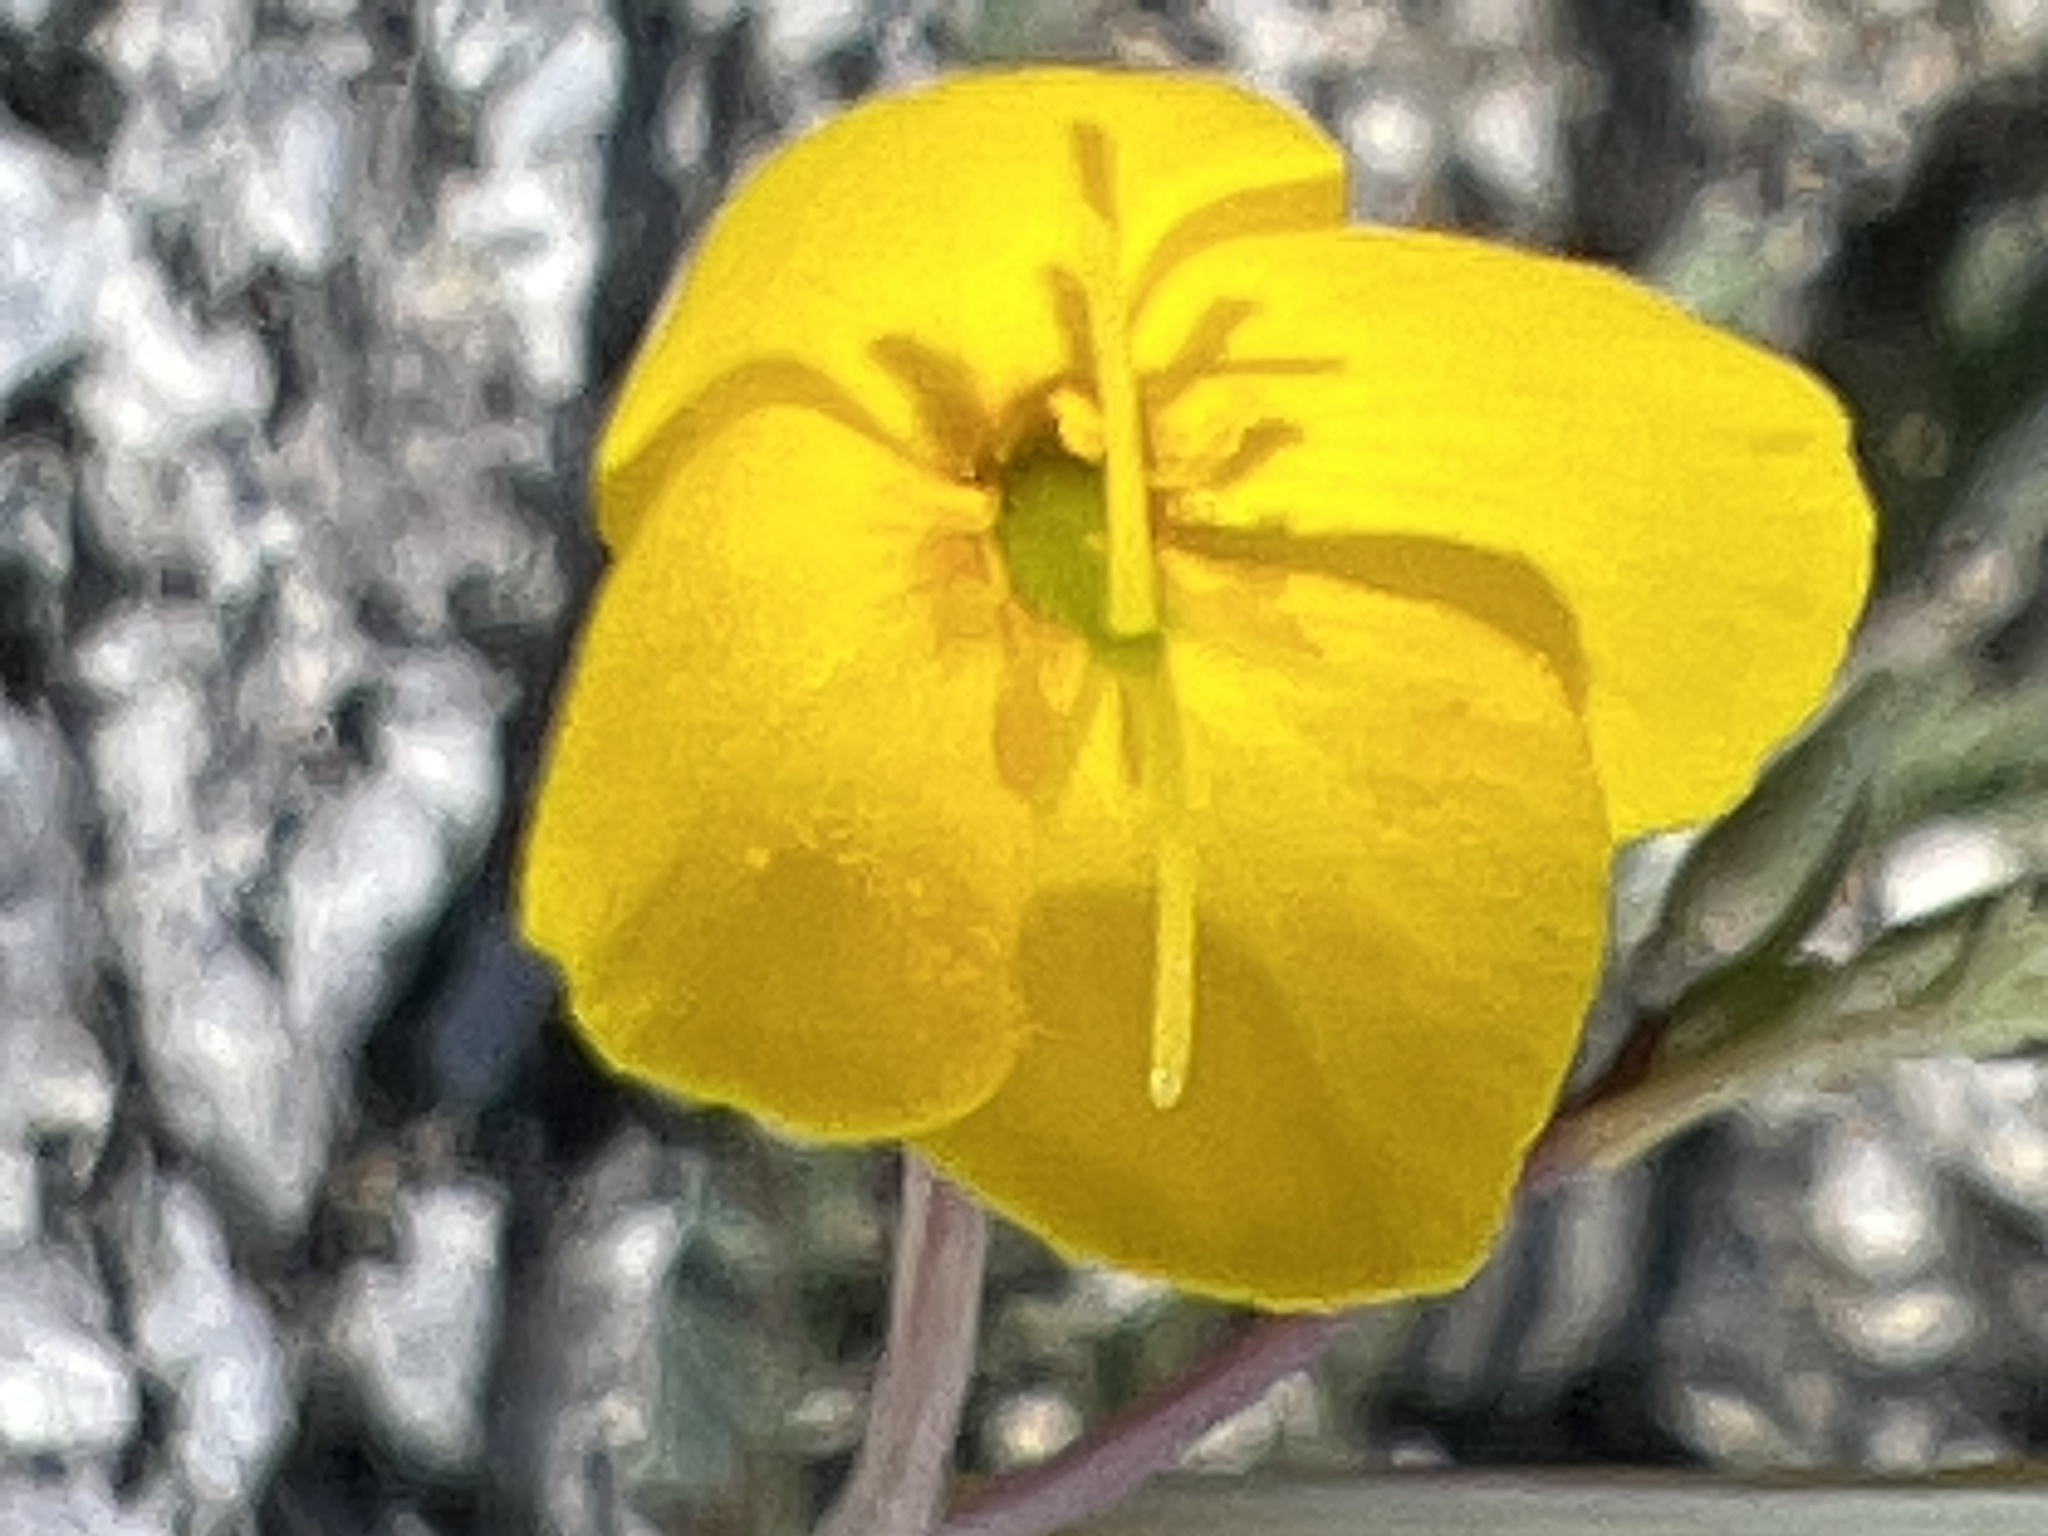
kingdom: Plantae
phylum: Tracheophyta
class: Magnoliopsida
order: Ranunculales
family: Papaveraceae
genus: Eschscholzia
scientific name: Eschscholzia minutiflora
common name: Small-flower california-poppy
